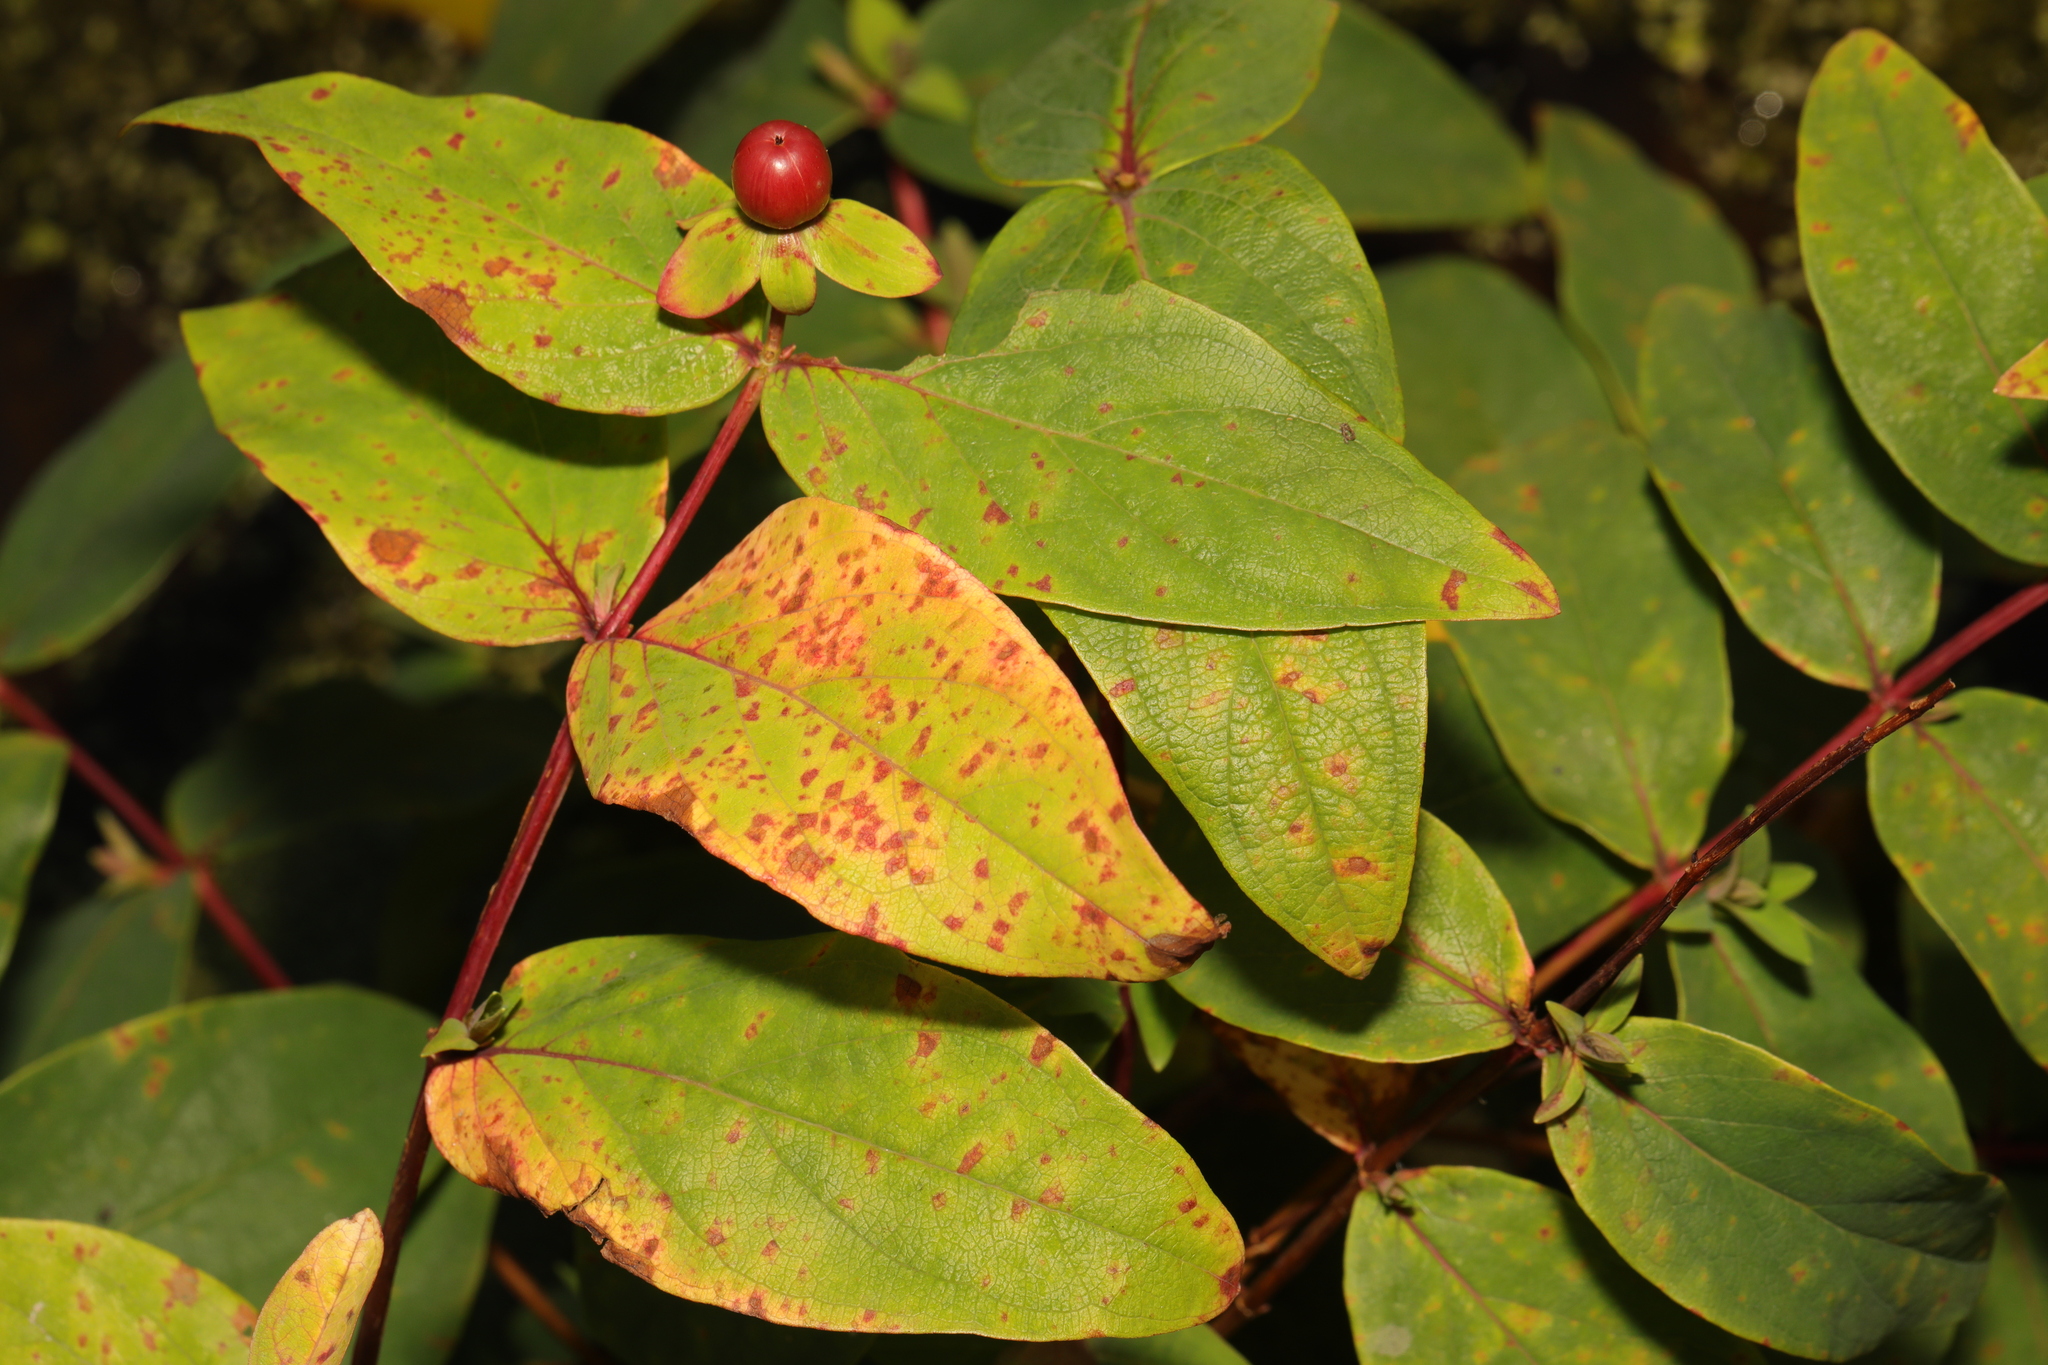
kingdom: Plantae
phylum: Tracheophyta
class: Magnoliopsida
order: Malpighiales
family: Hypericaceae
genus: Hypericum
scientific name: Hypericum androsaemum
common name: Sweet-amber
